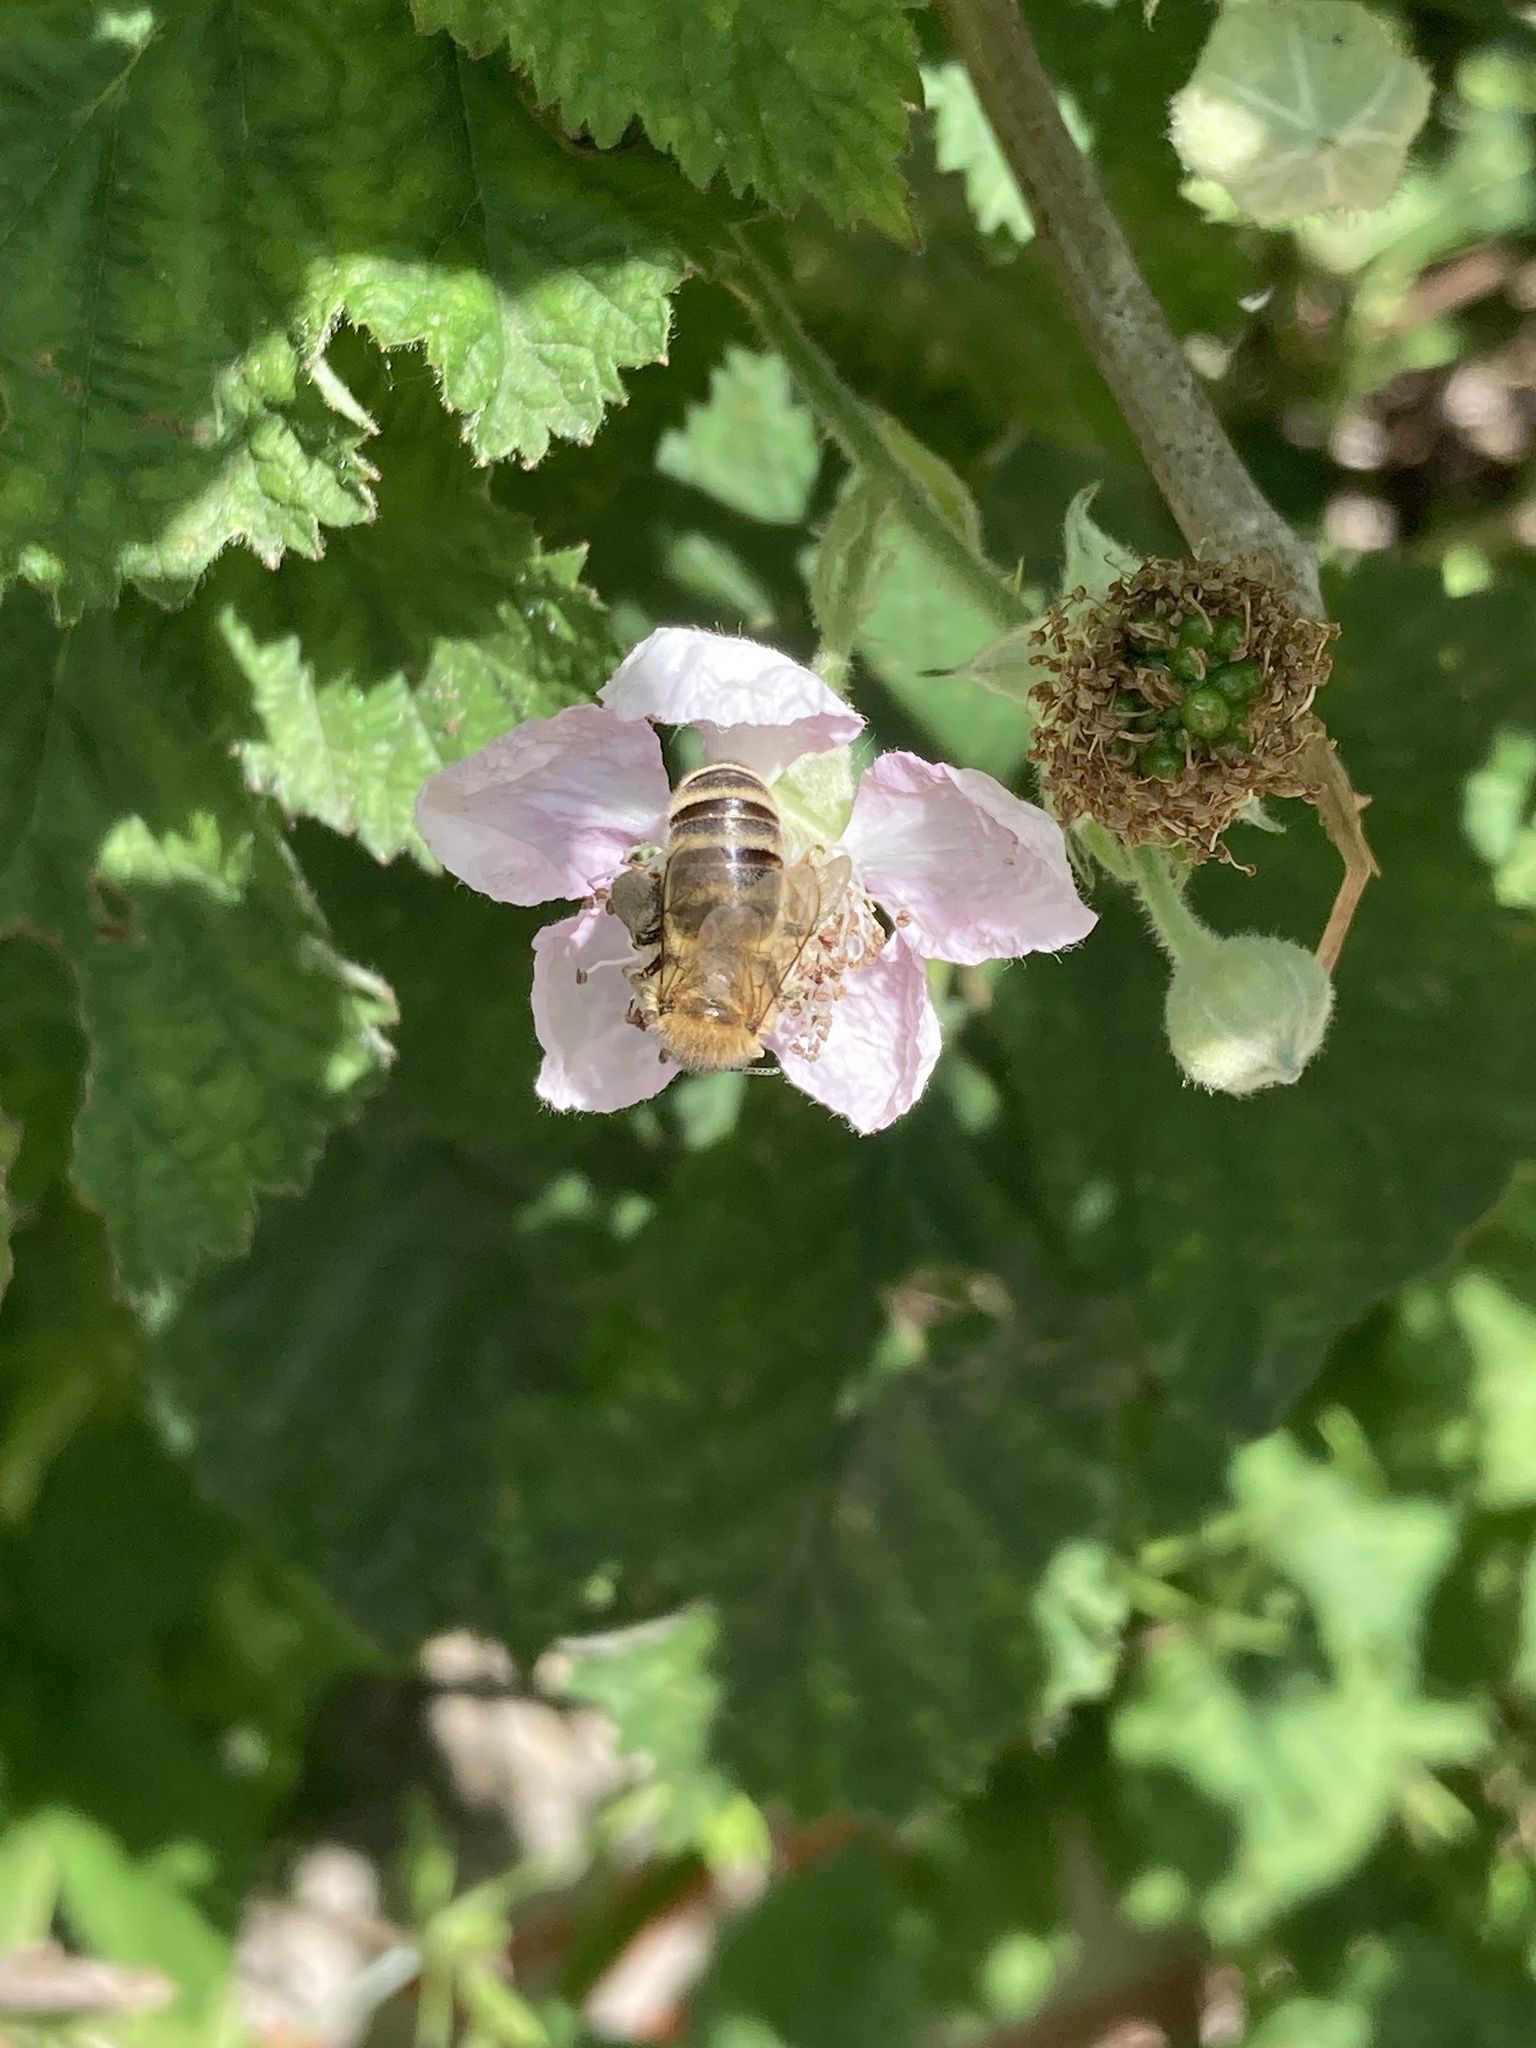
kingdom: Animalia
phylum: Arthropoda
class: Insecta
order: Hymenoptera
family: Apidae
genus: Apis
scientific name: Apis mellifera
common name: Honey bee
